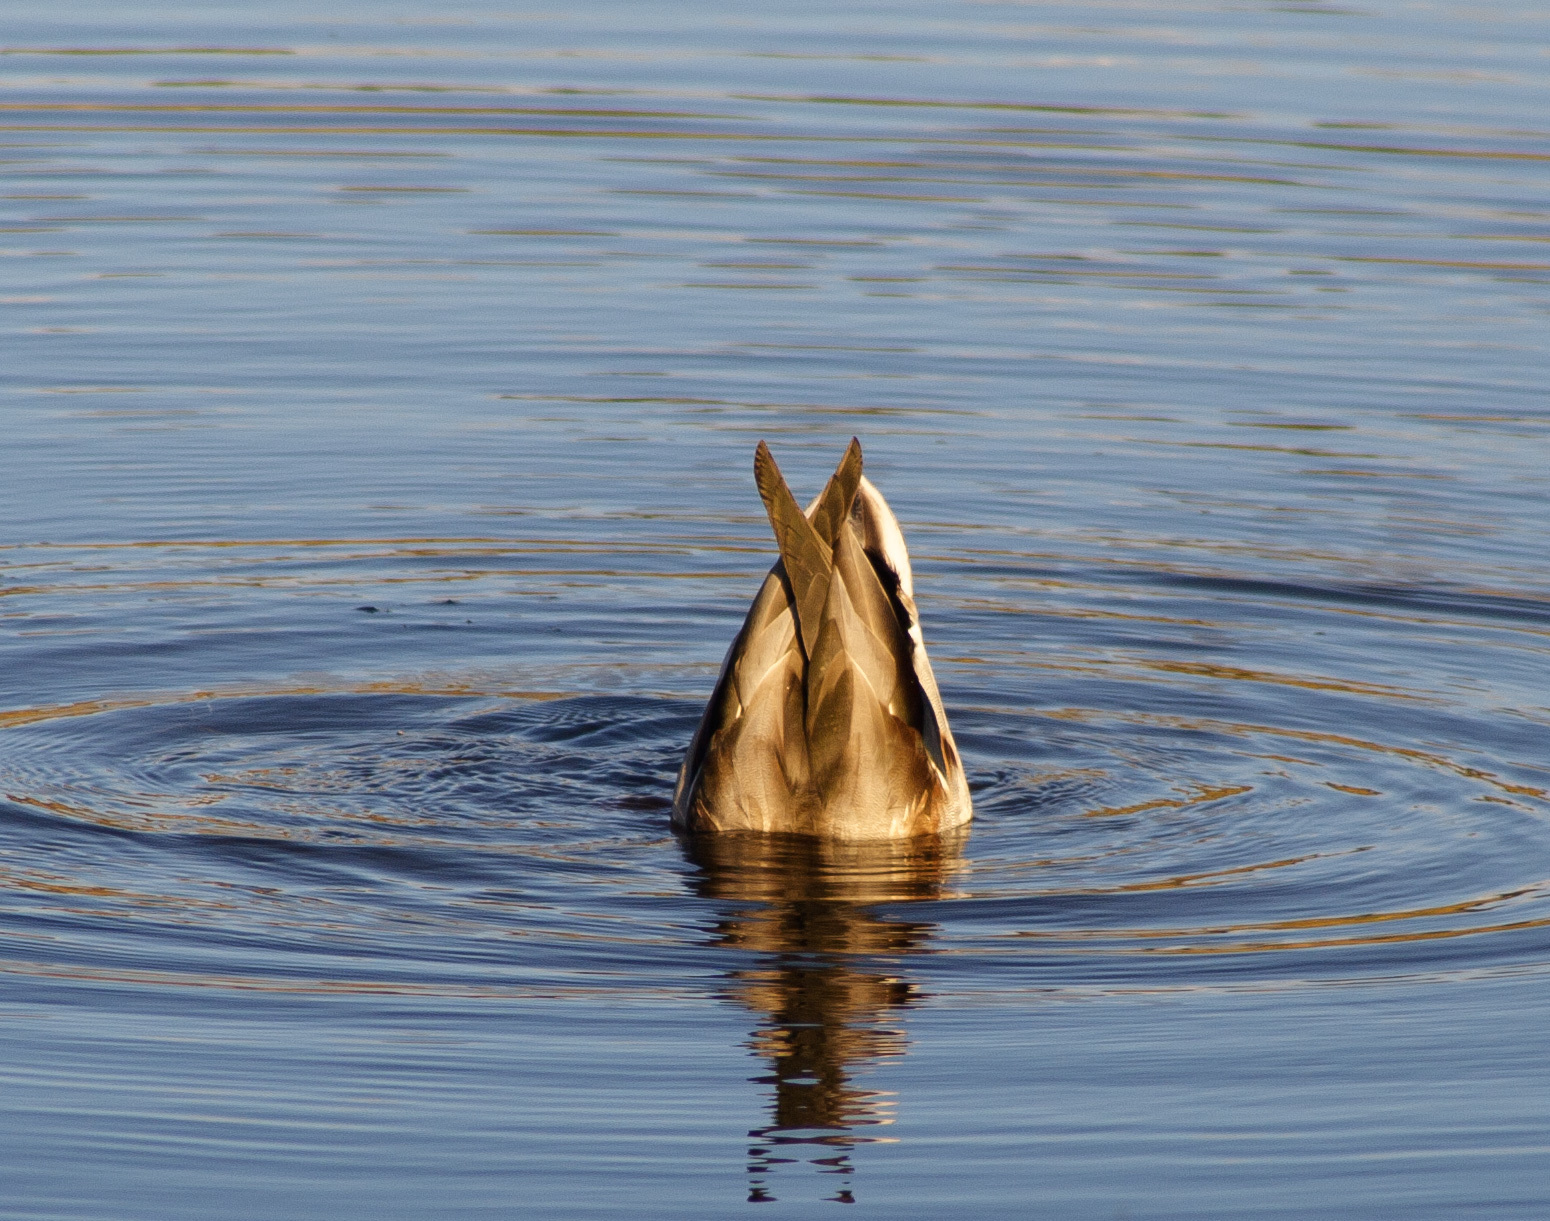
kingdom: Animalia
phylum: Chordata
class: Aves
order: Anseriformes
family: Anatidae
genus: Anas
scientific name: Anas platyrhynchos
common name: Mallard
